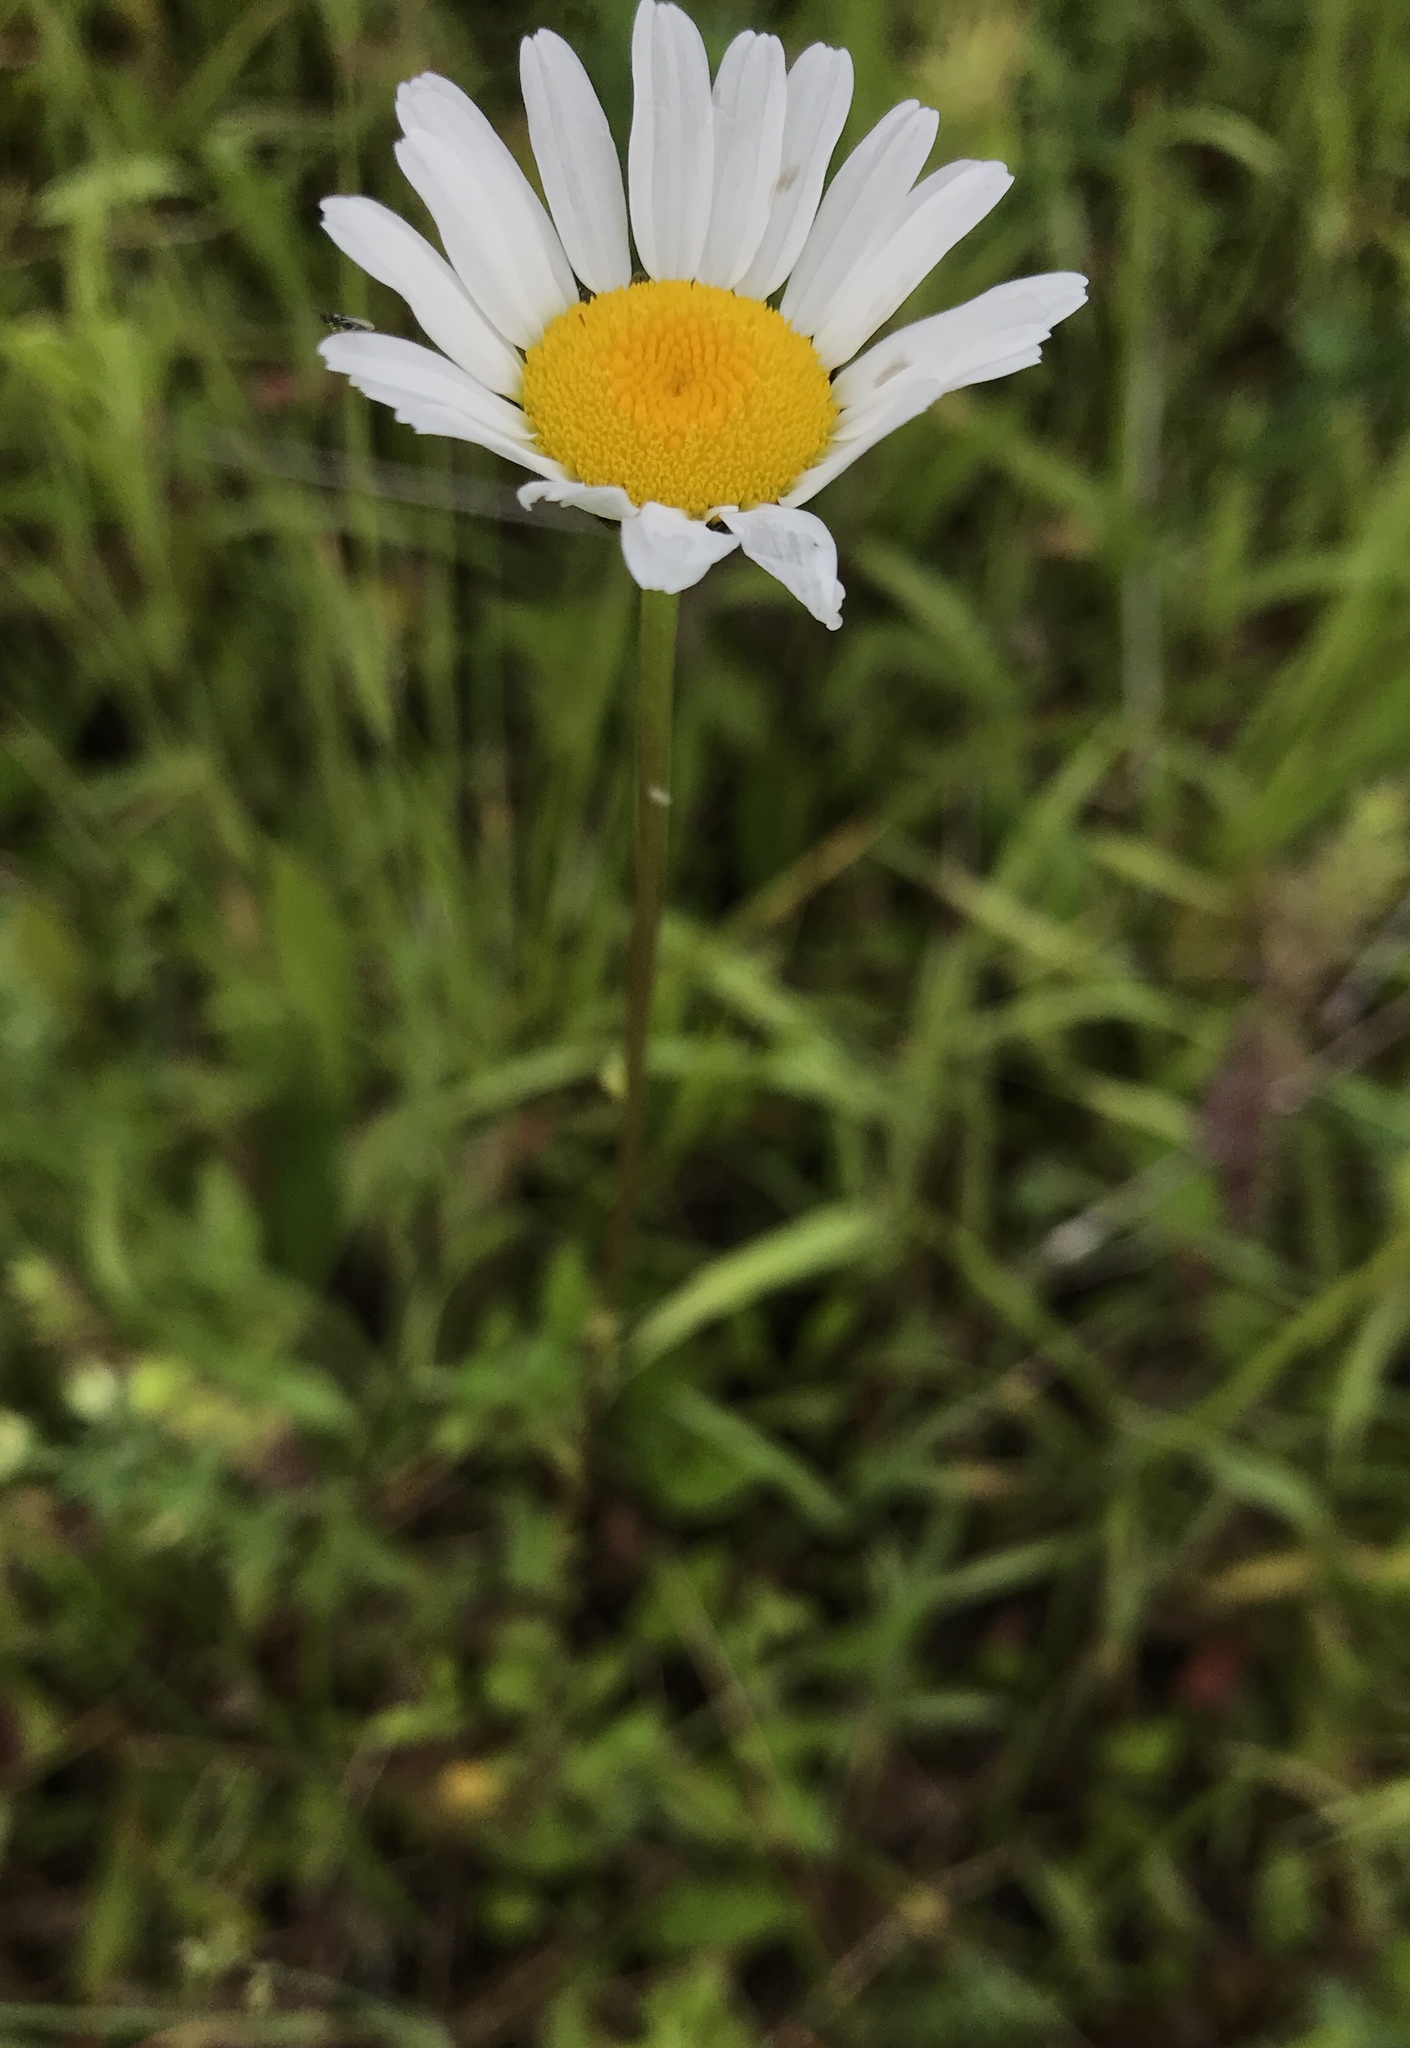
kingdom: Plantae
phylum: Tracheophyta
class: Magnoliopsida
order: Asterales
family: Asteraceae
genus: Leucanthemum
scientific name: Leucanthemum vulgare
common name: Oxeye daisy
